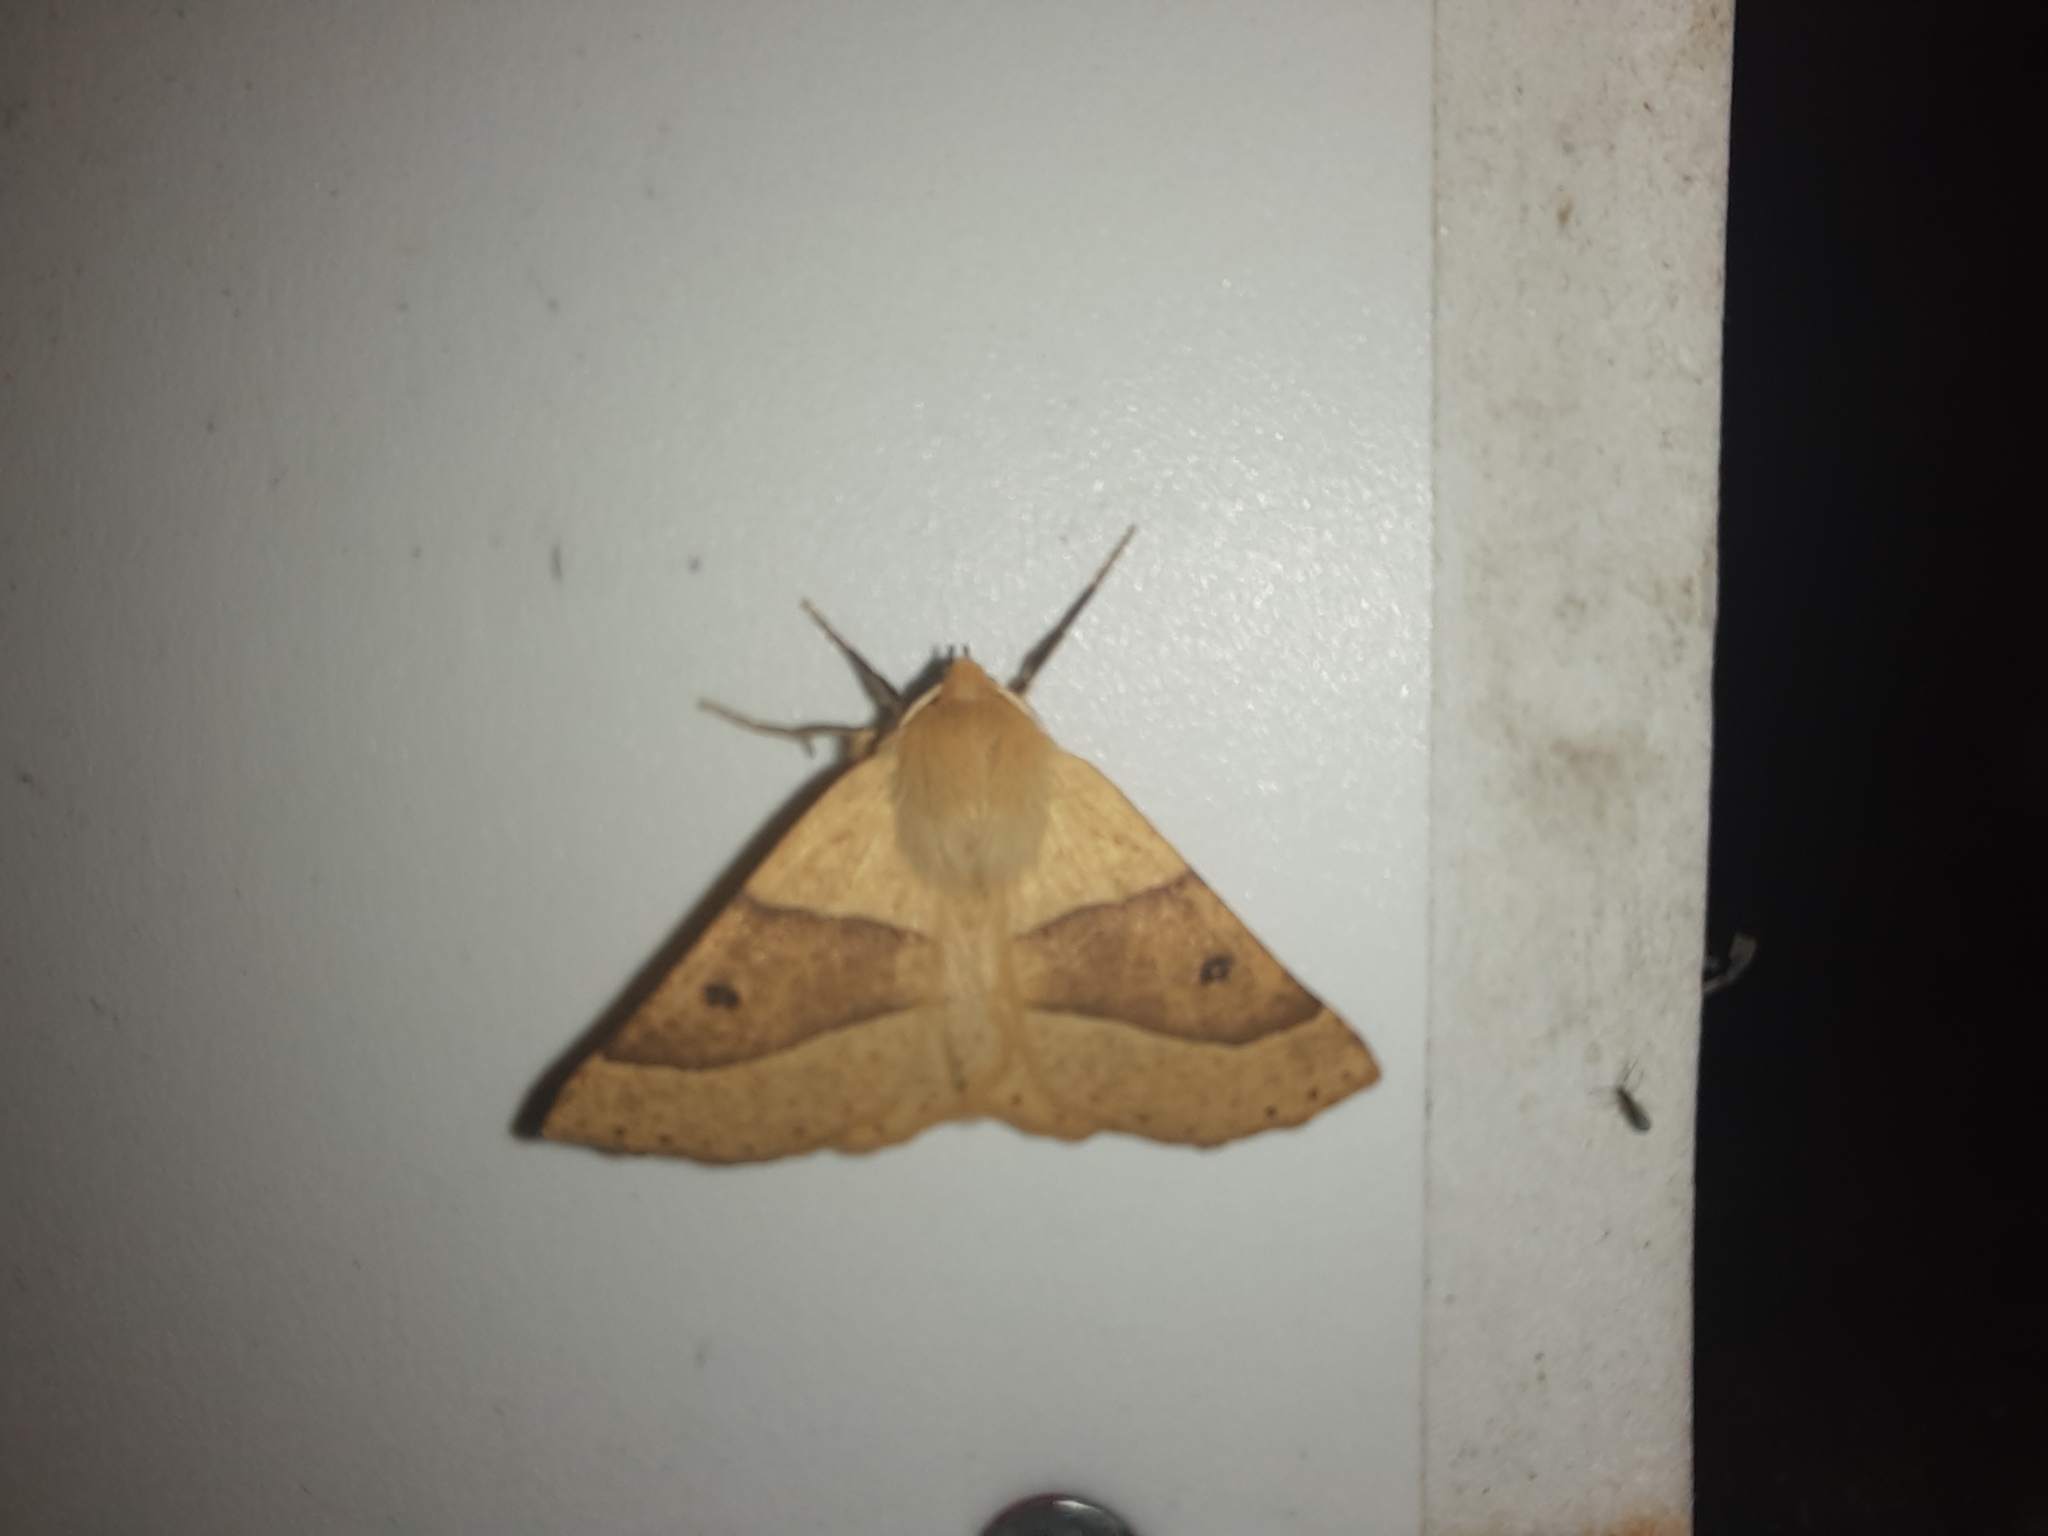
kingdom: Animalia
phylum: Arthropoda
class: Insecta
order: Lepidoptera
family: Geometridae
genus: Crocallis
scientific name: Crocallis elinguaria
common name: Scalloped oak
